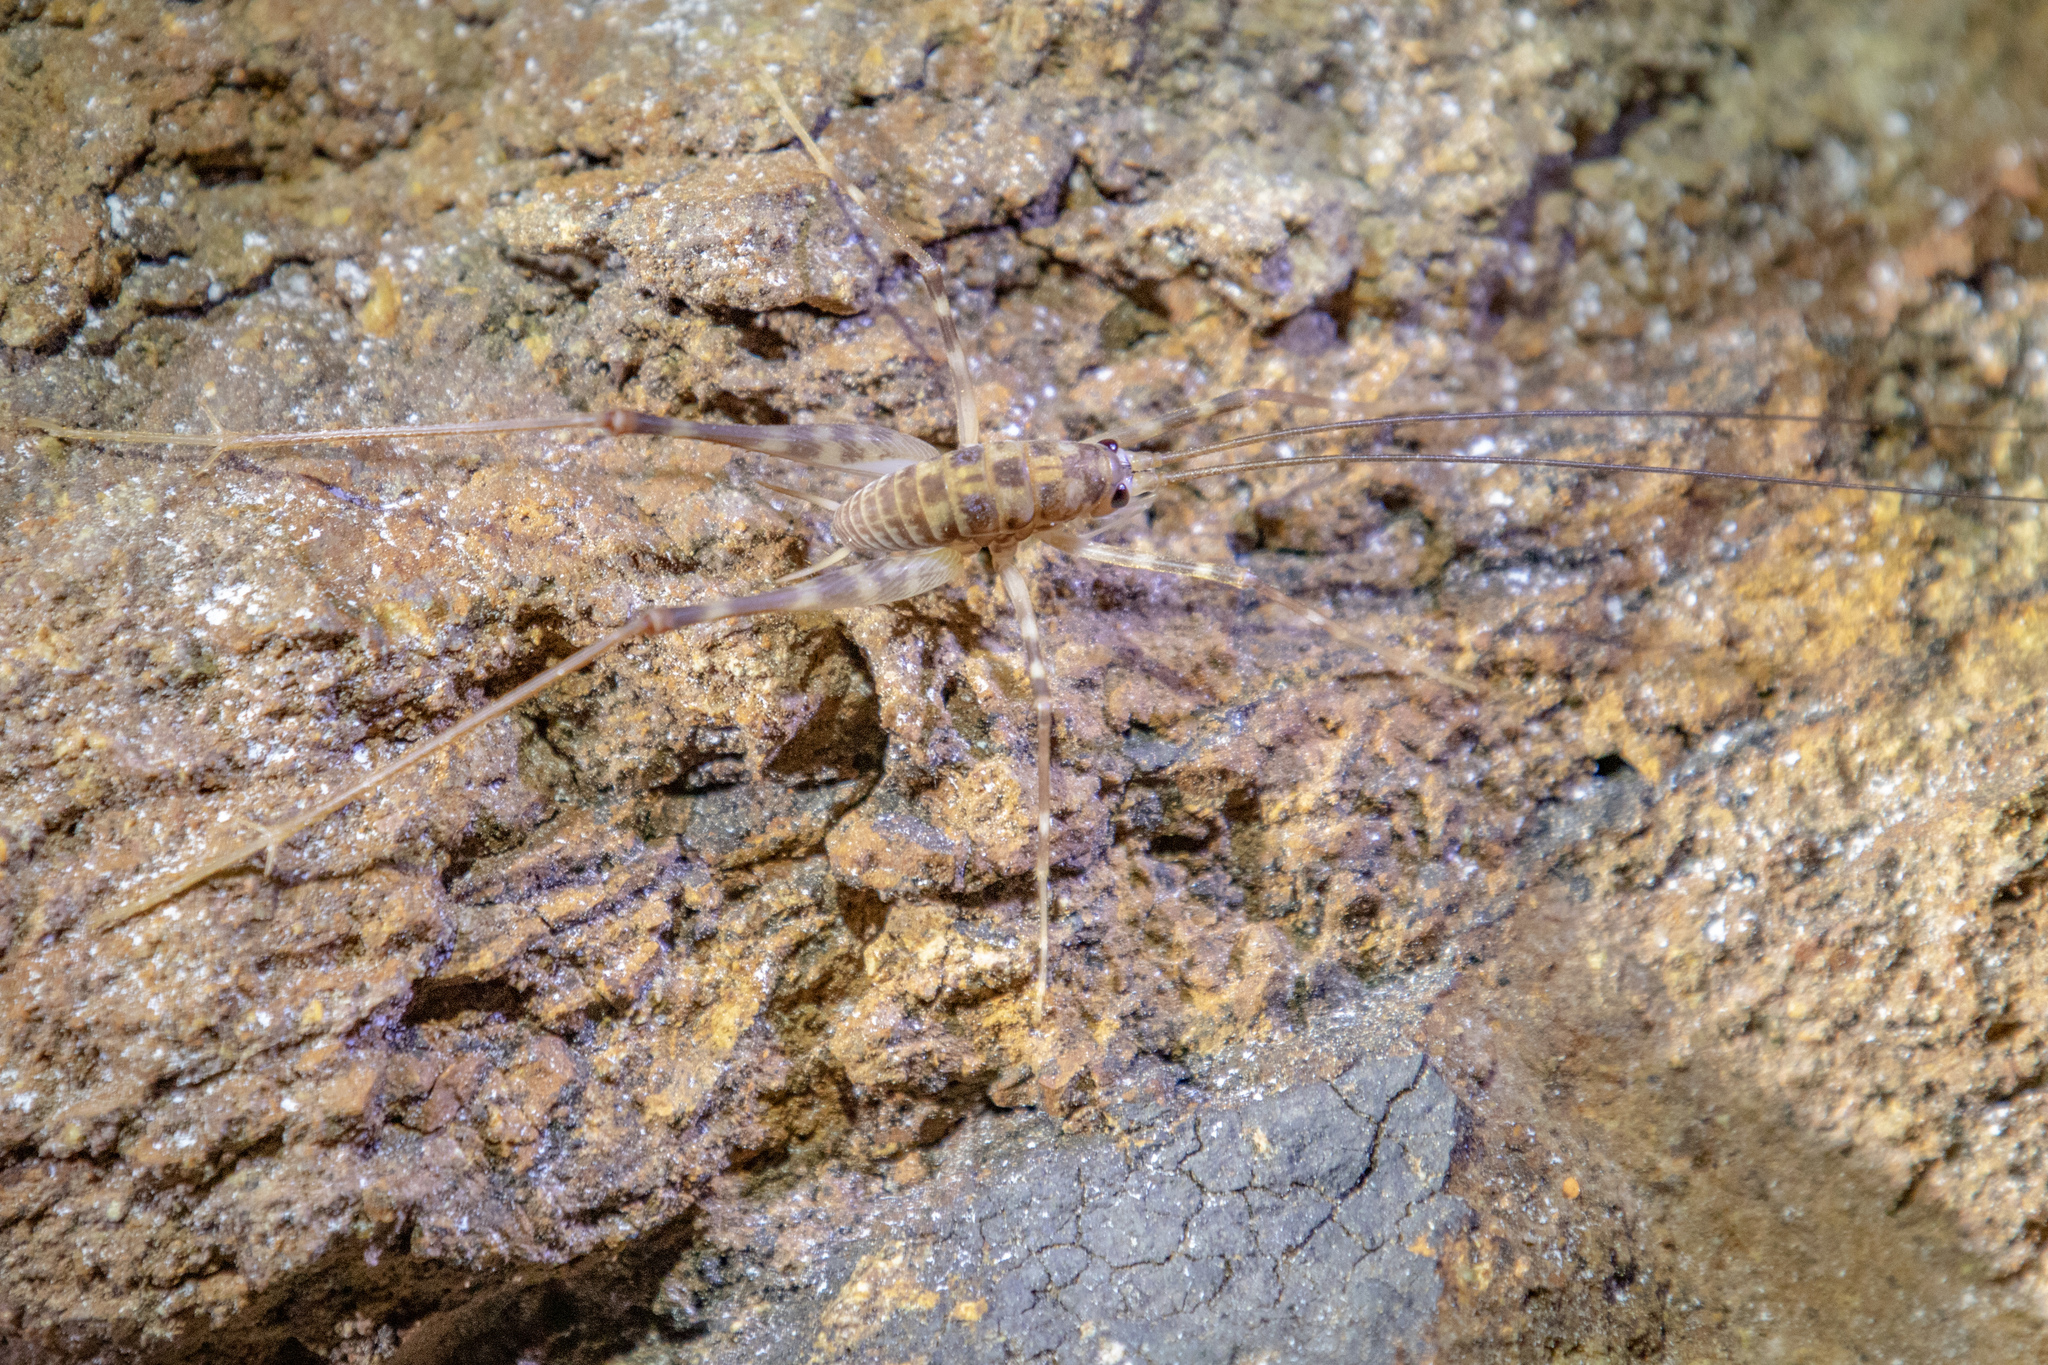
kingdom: Animalia
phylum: Arthropoda
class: Insecta
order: Orthoptera
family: Rhaphidophoridae
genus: Pachyrhamma
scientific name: Pachyrhamma cavernae
